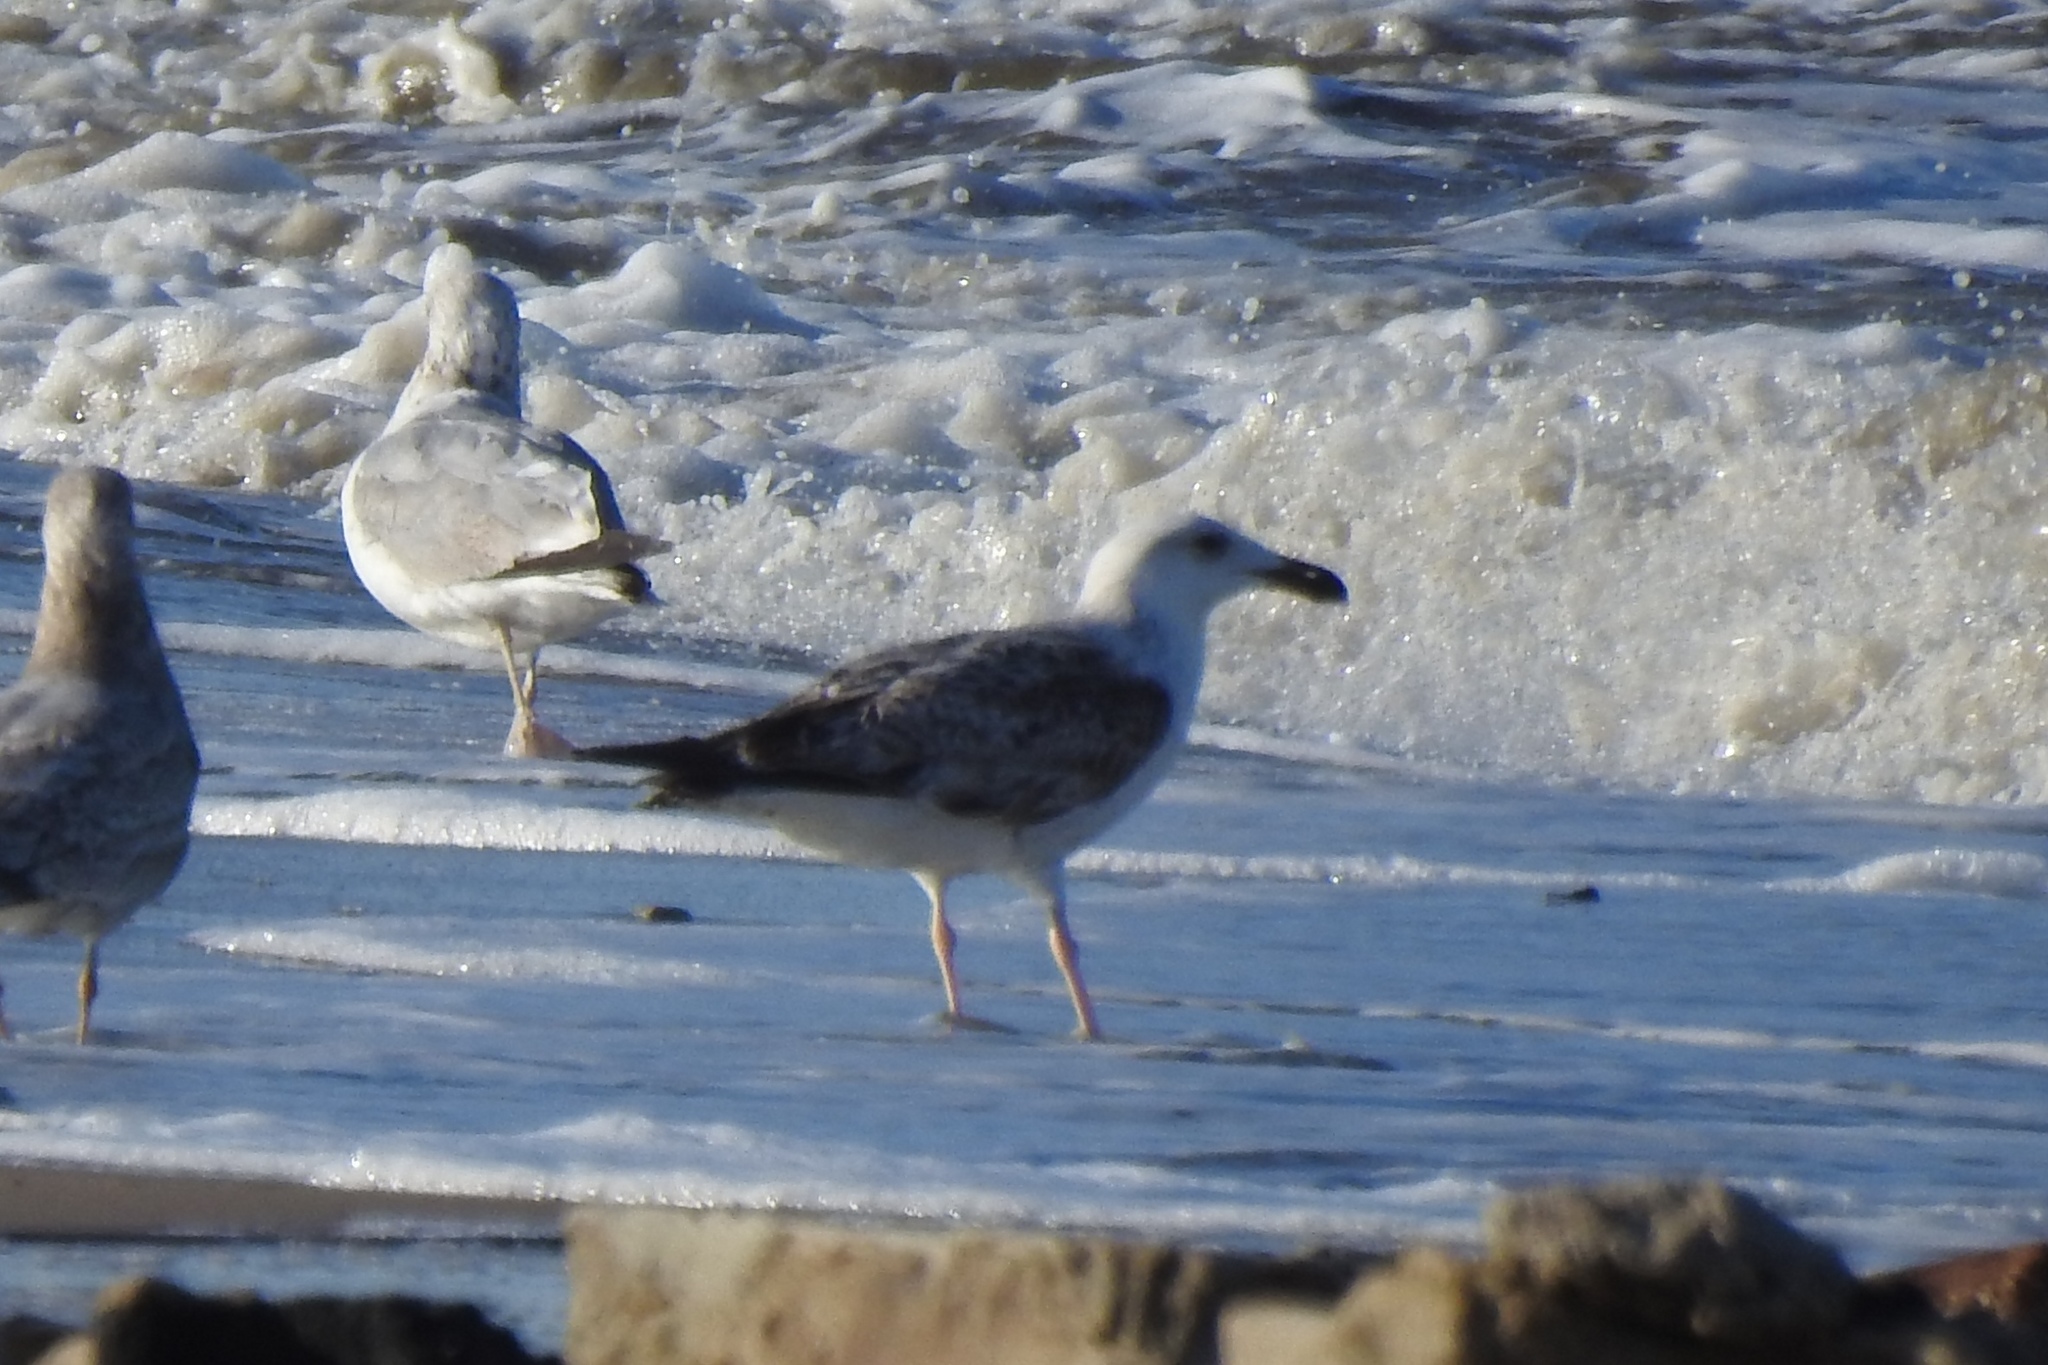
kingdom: Animalia
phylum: Chordata
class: Aves
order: Charadriiformes
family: Laridae
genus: Larus
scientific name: Larus marinus
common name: Great black-backed gull
